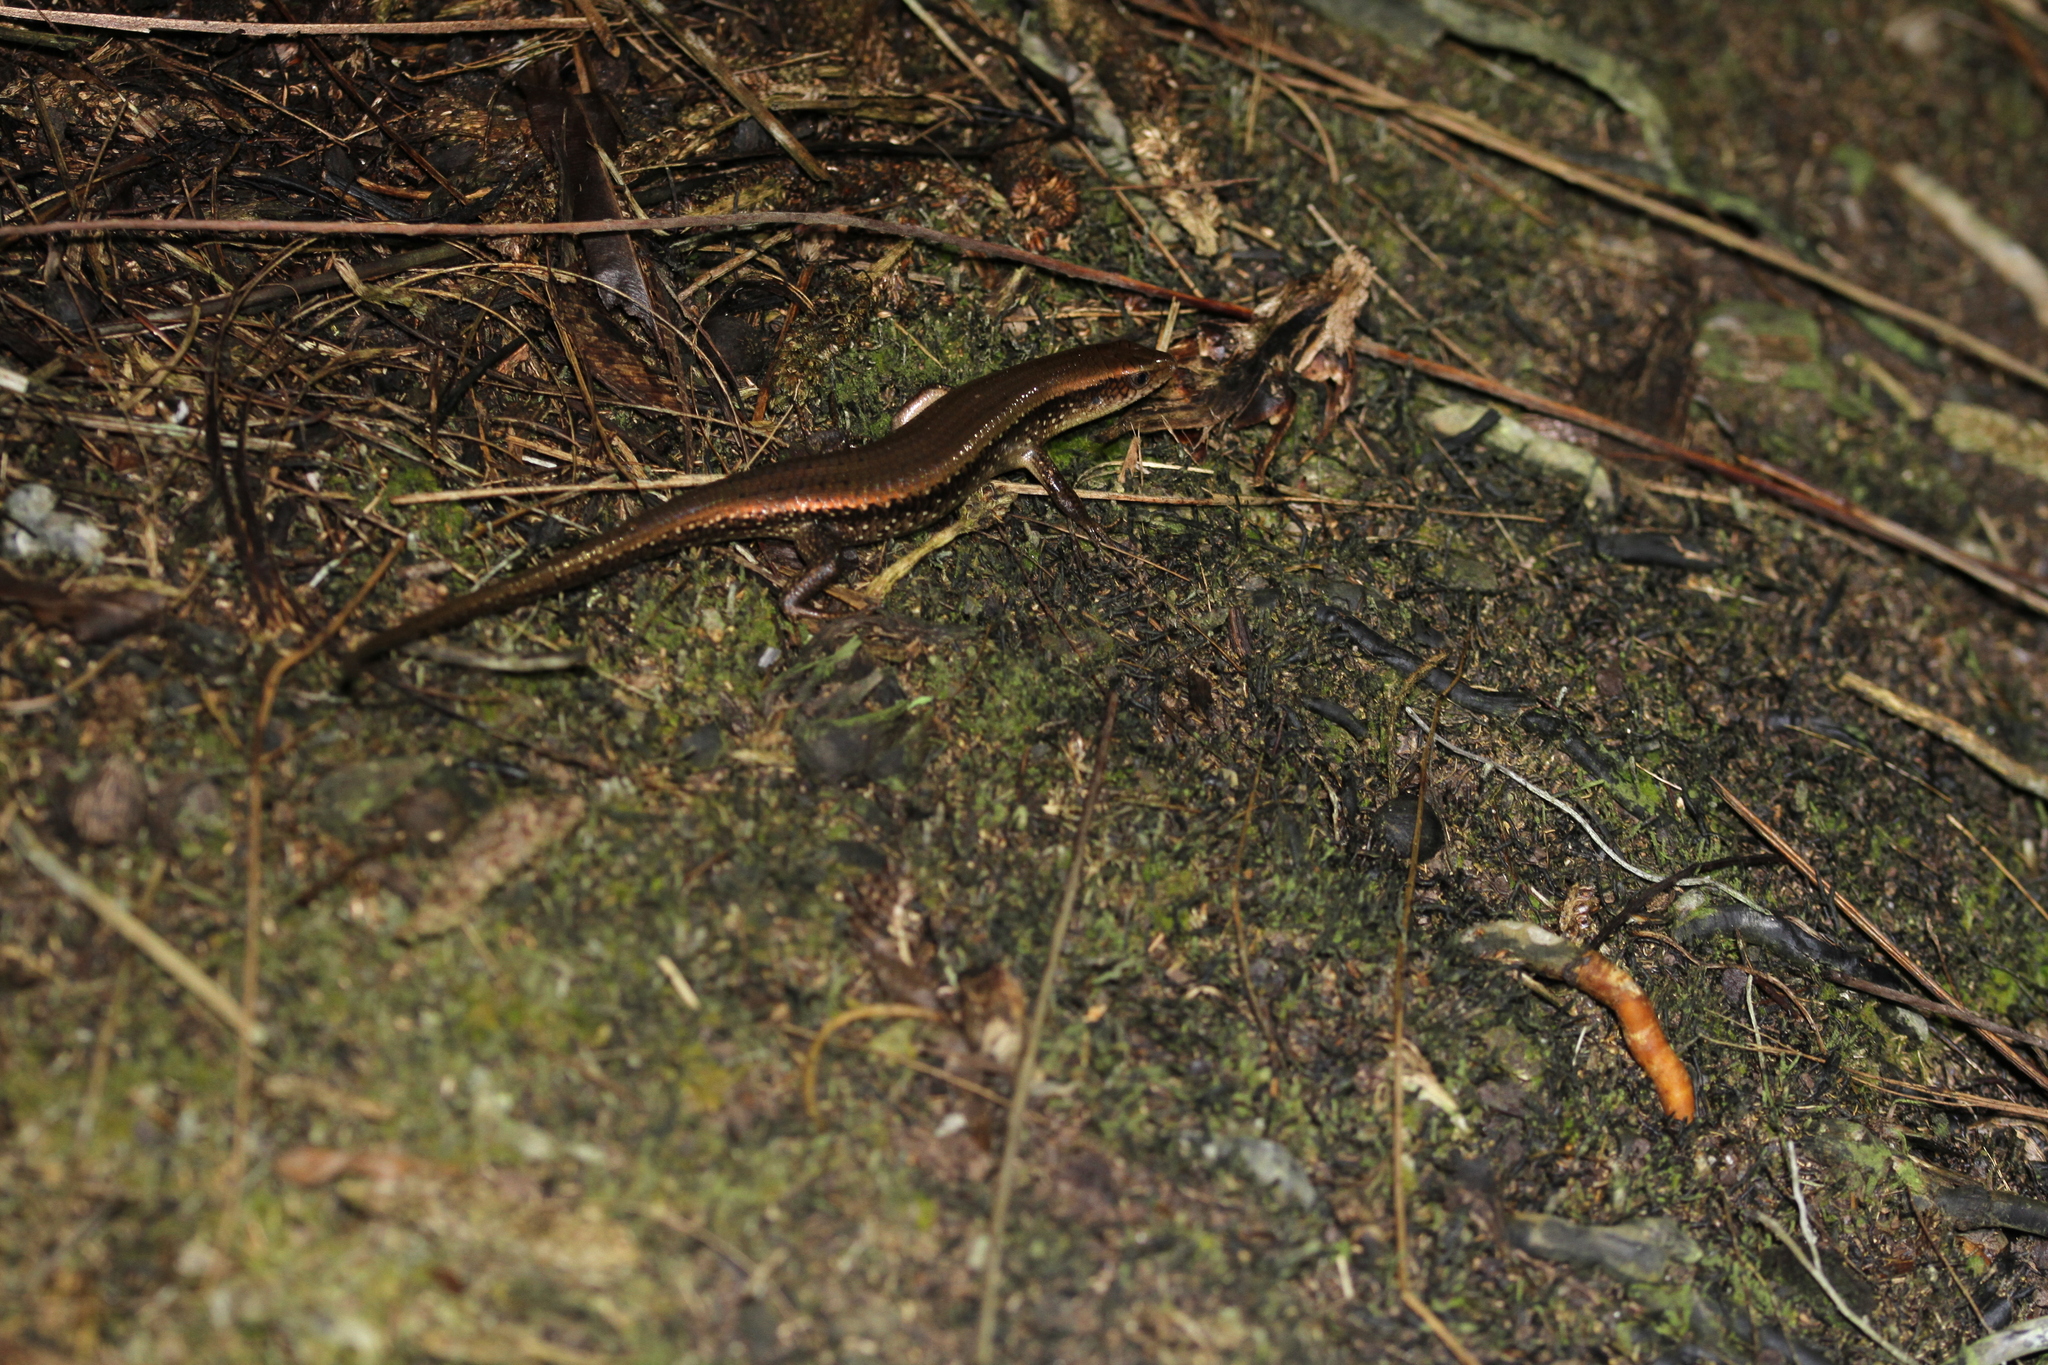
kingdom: Animalia
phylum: Chordata
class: Squamata
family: Scincidae
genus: Eutropis
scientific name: Eutropis multifasciata
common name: Common mabuya
